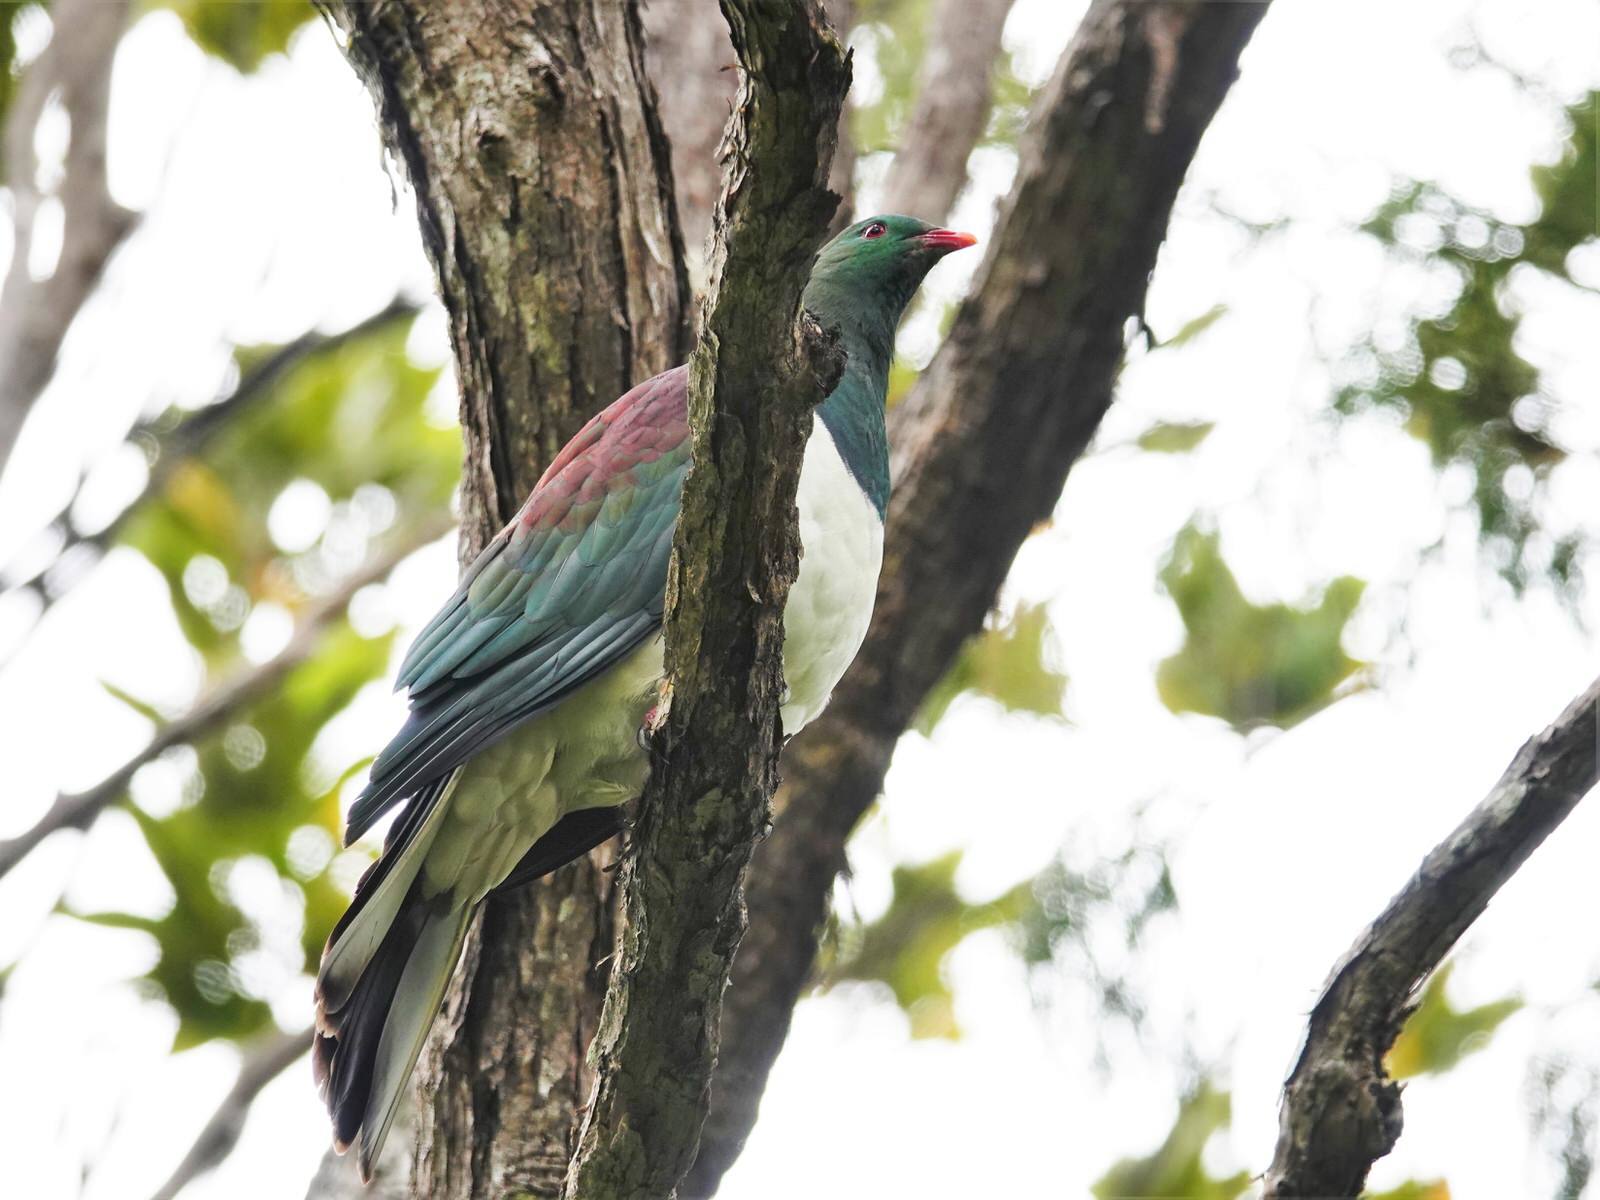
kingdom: Animalia
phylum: Chordata
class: Aves
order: Columbiformes
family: Columbidae
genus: Hemiphaga
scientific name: Hemiphaga novaeseelandiae
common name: New zealand pigeon
